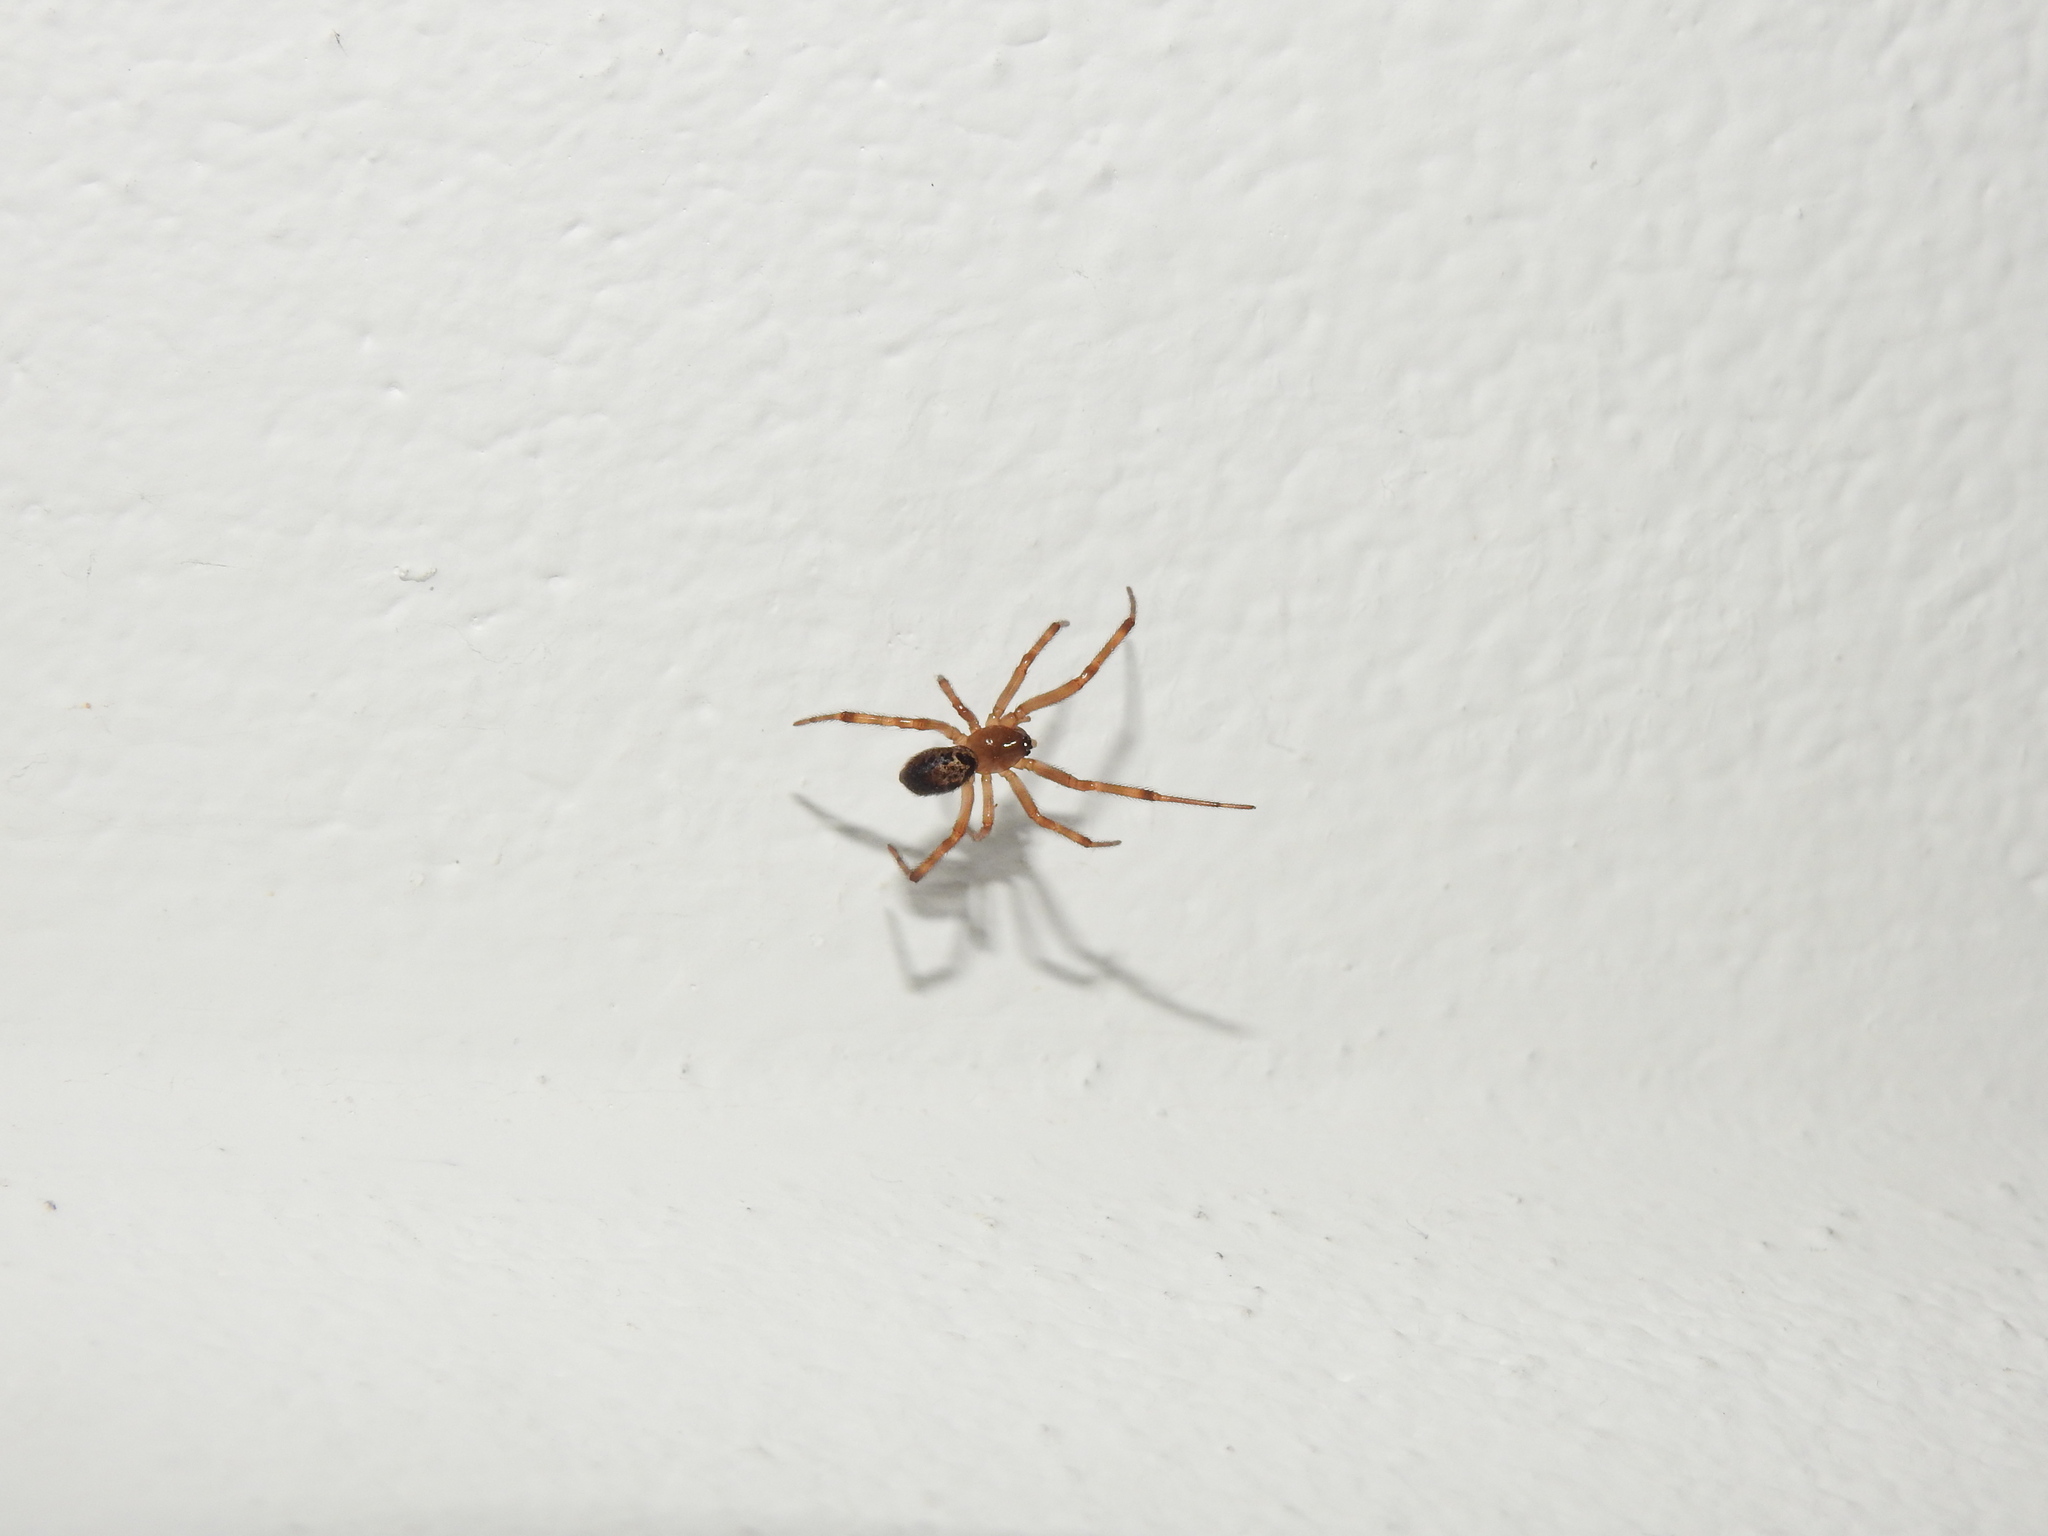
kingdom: Animalia
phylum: Arthropoda
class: Arachnida
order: Araneae
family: Theridiidae
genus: Steatoda
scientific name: Steatoda nobilis
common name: Cobweb weaver
